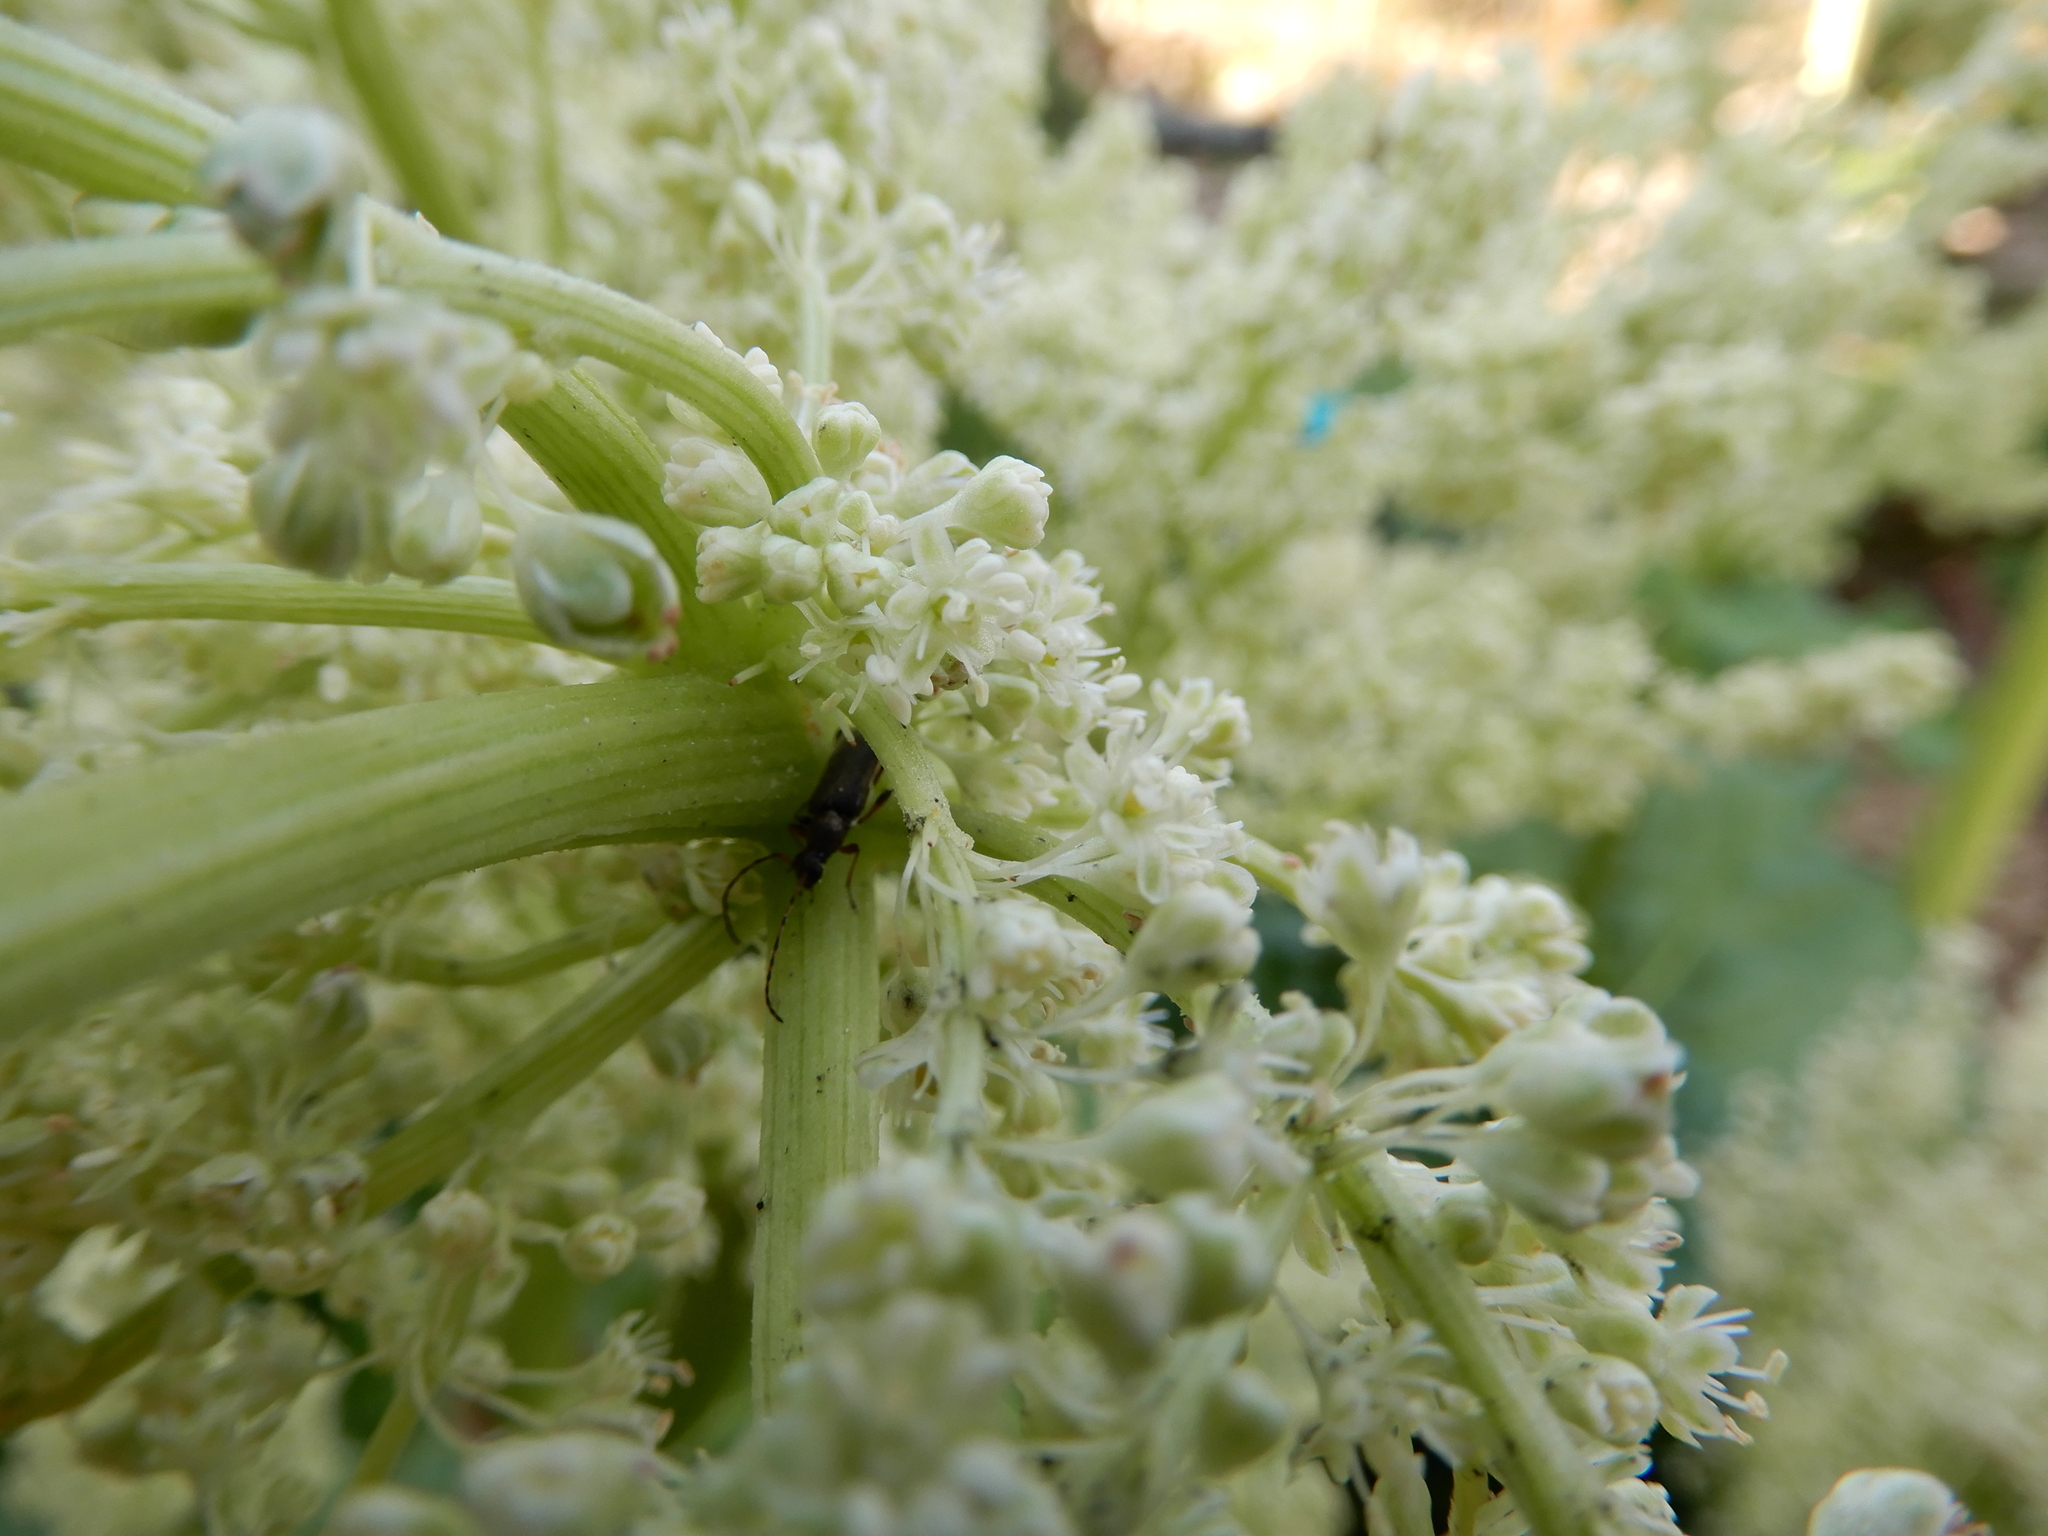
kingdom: Animalia
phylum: Arthropoda
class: Insecta
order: Coleoptera
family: Cerambycidae
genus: Grammoptera
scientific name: Grammoptera ruficornis
